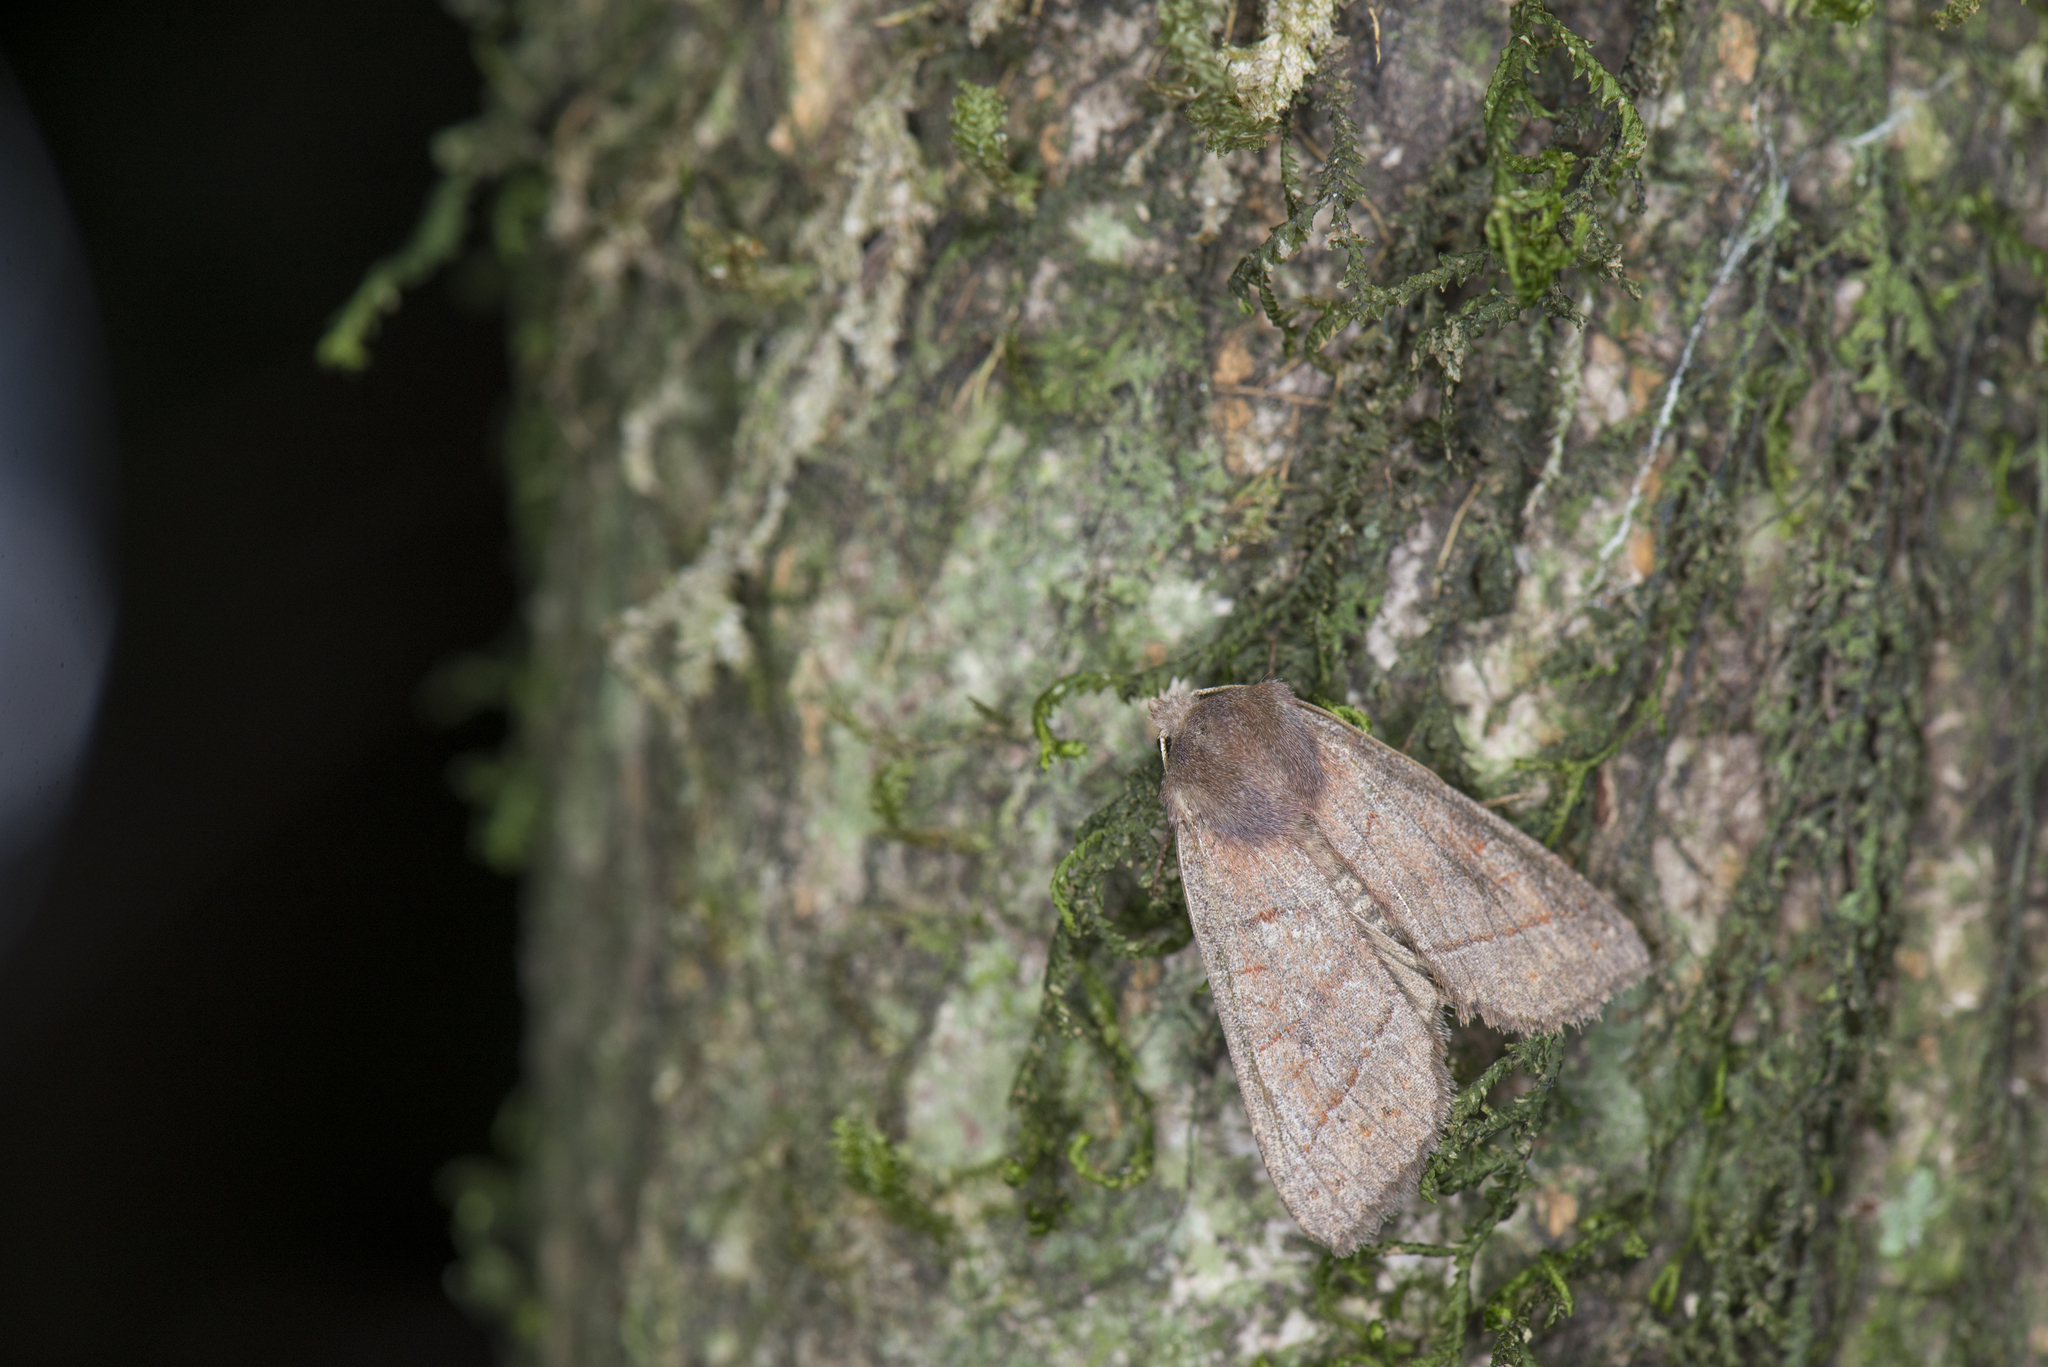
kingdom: Animalia
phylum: Arthropoda
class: Insecta
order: Lepidoptera
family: Noctuidae
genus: Telorta
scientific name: Telorta obscura
